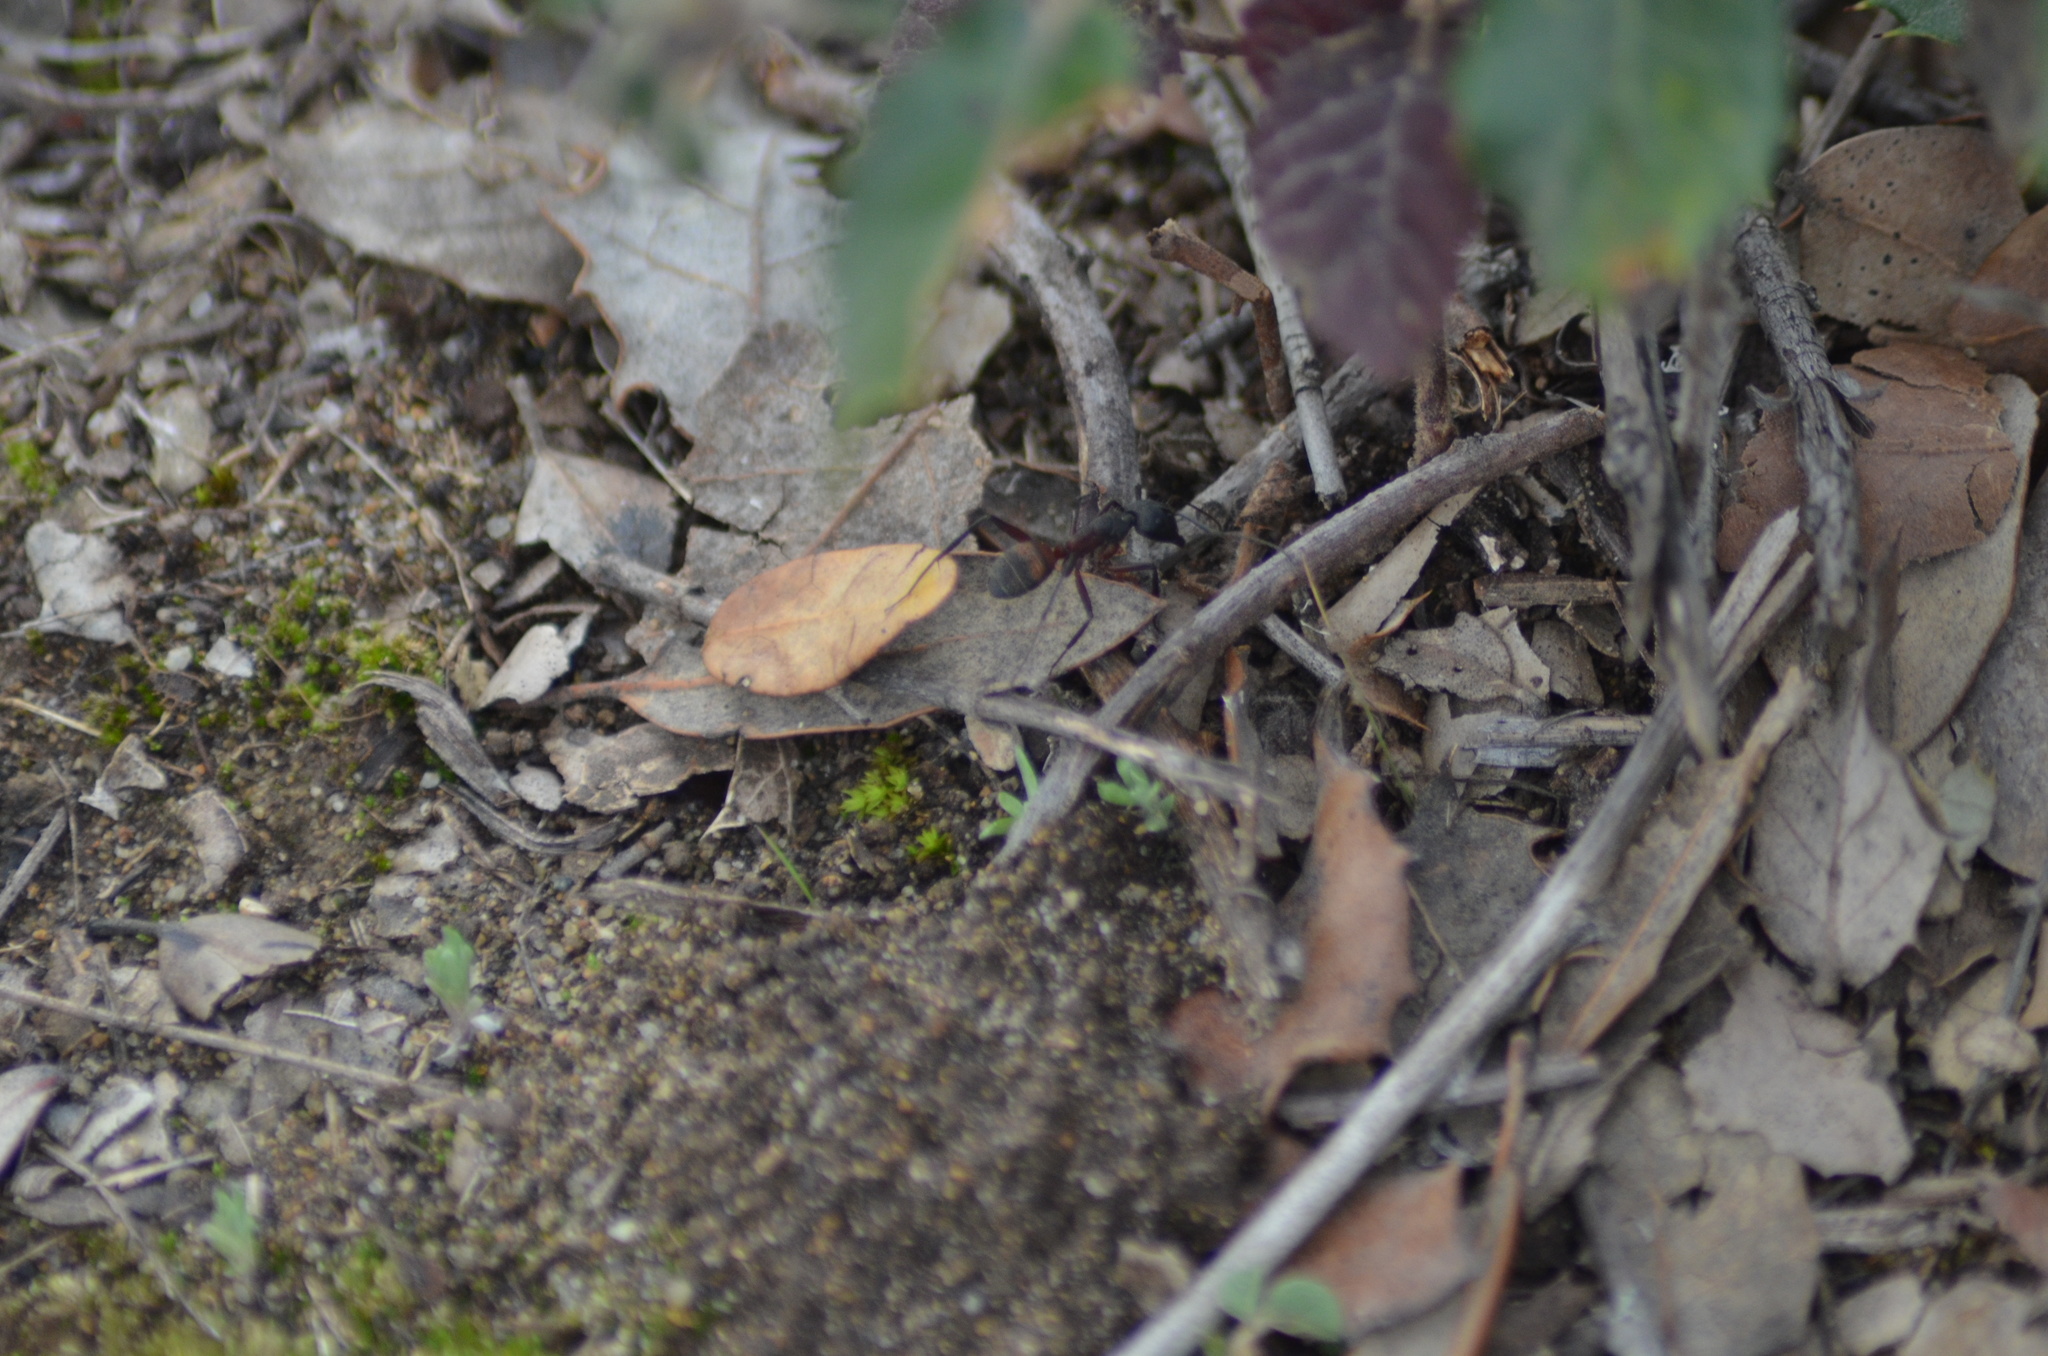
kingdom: Animalia
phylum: Arthropoda
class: Insecta
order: Hymenoptera
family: Formicidae
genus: Camponotus
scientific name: Camponotus cruentatus
